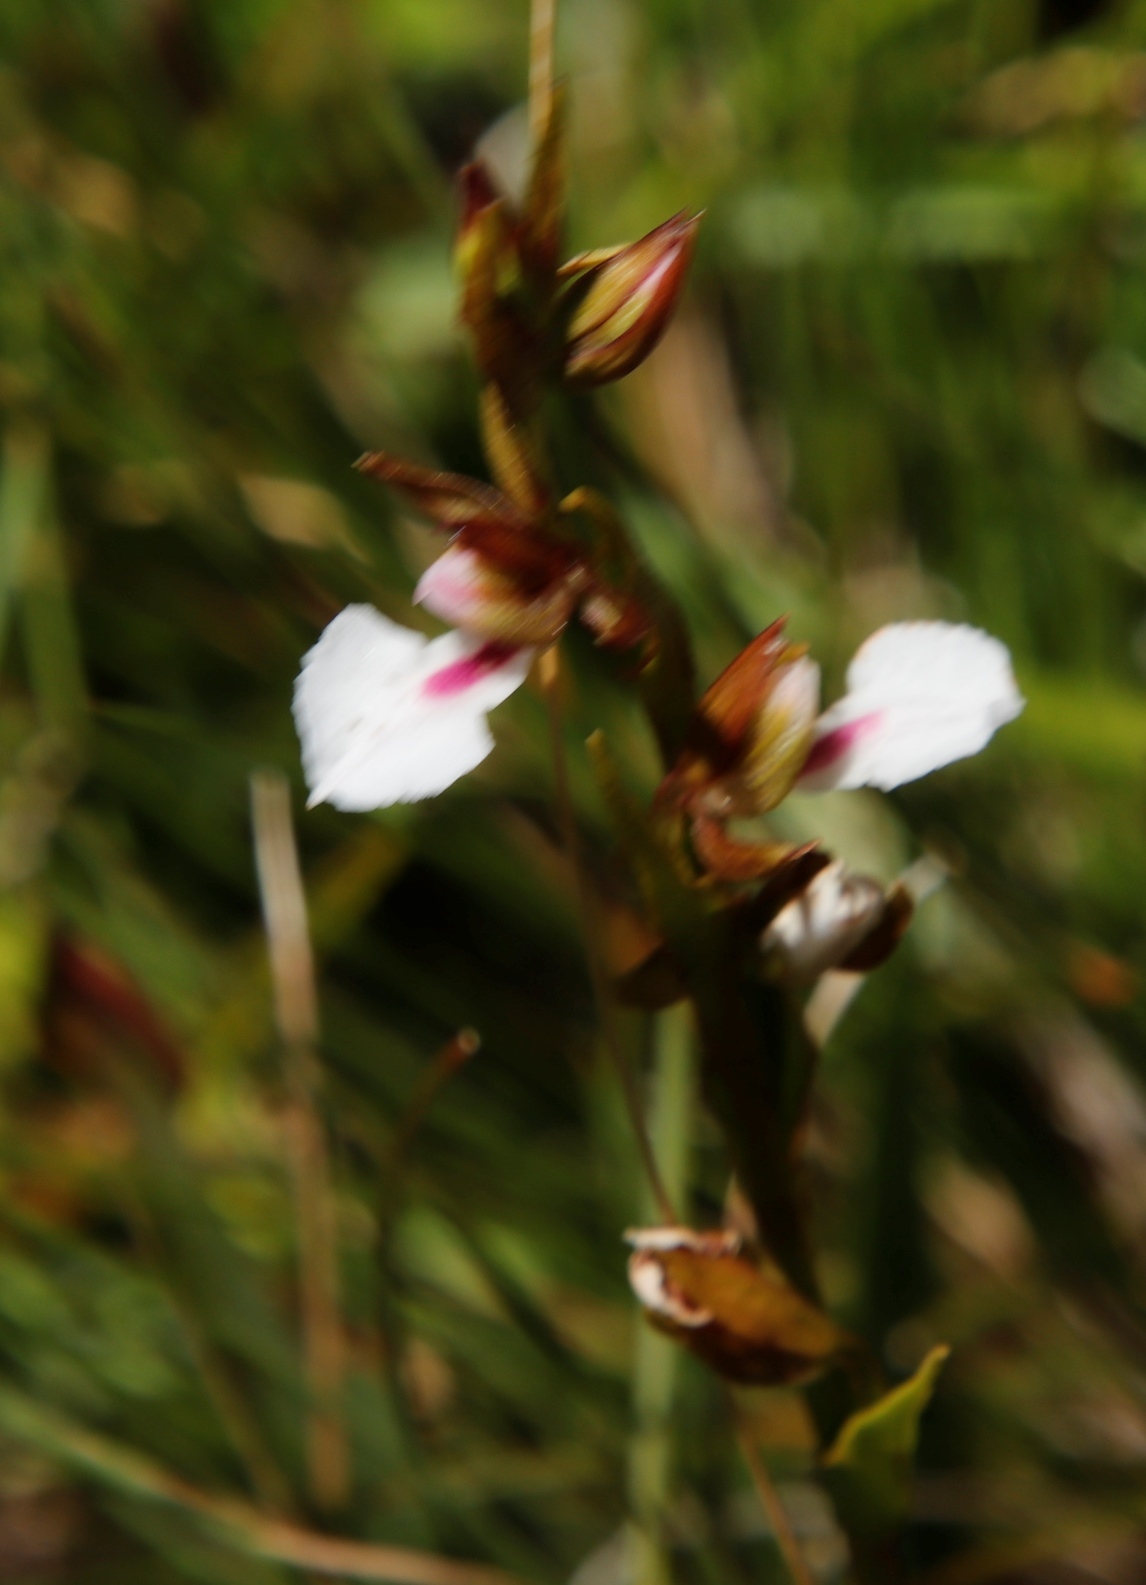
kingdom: Plantae
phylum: Tracheophyta
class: Liliopsida
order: Asparagales
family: Orchidaceae
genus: Neobolusia
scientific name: Neobolusia tysonii
